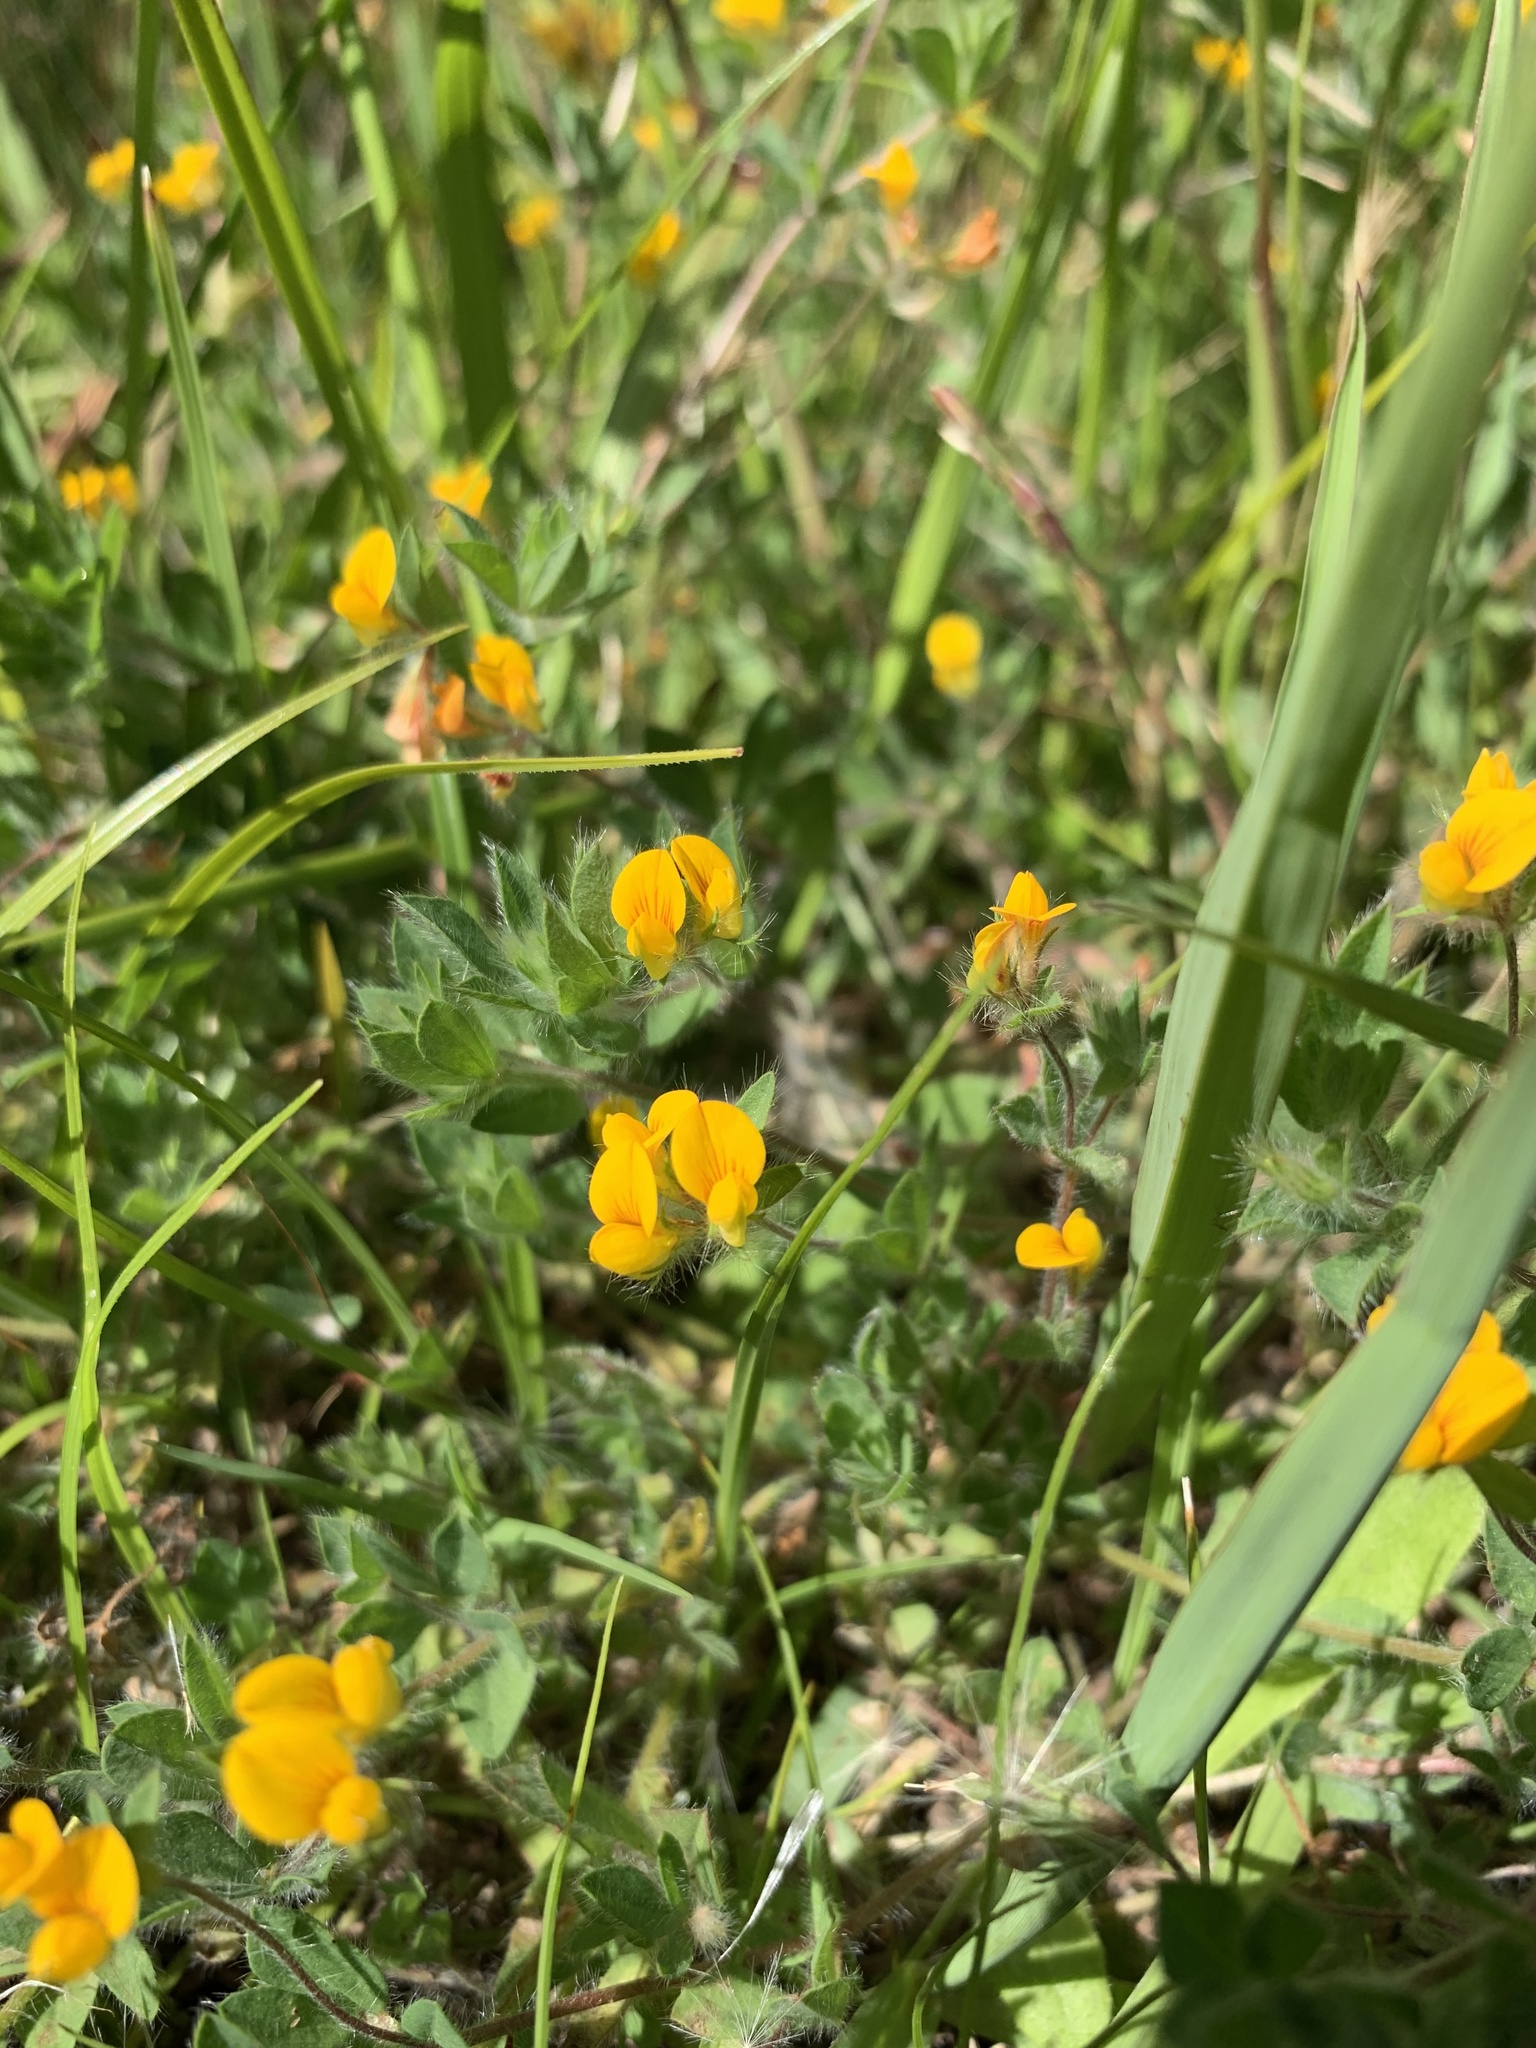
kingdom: Plantae
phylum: Tracheophyta
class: Magnoliopsida
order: Fabales
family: Fabaceae
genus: Lotus
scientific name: Lotus subbiflorus
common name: Hairy bird's-foot trefoil
